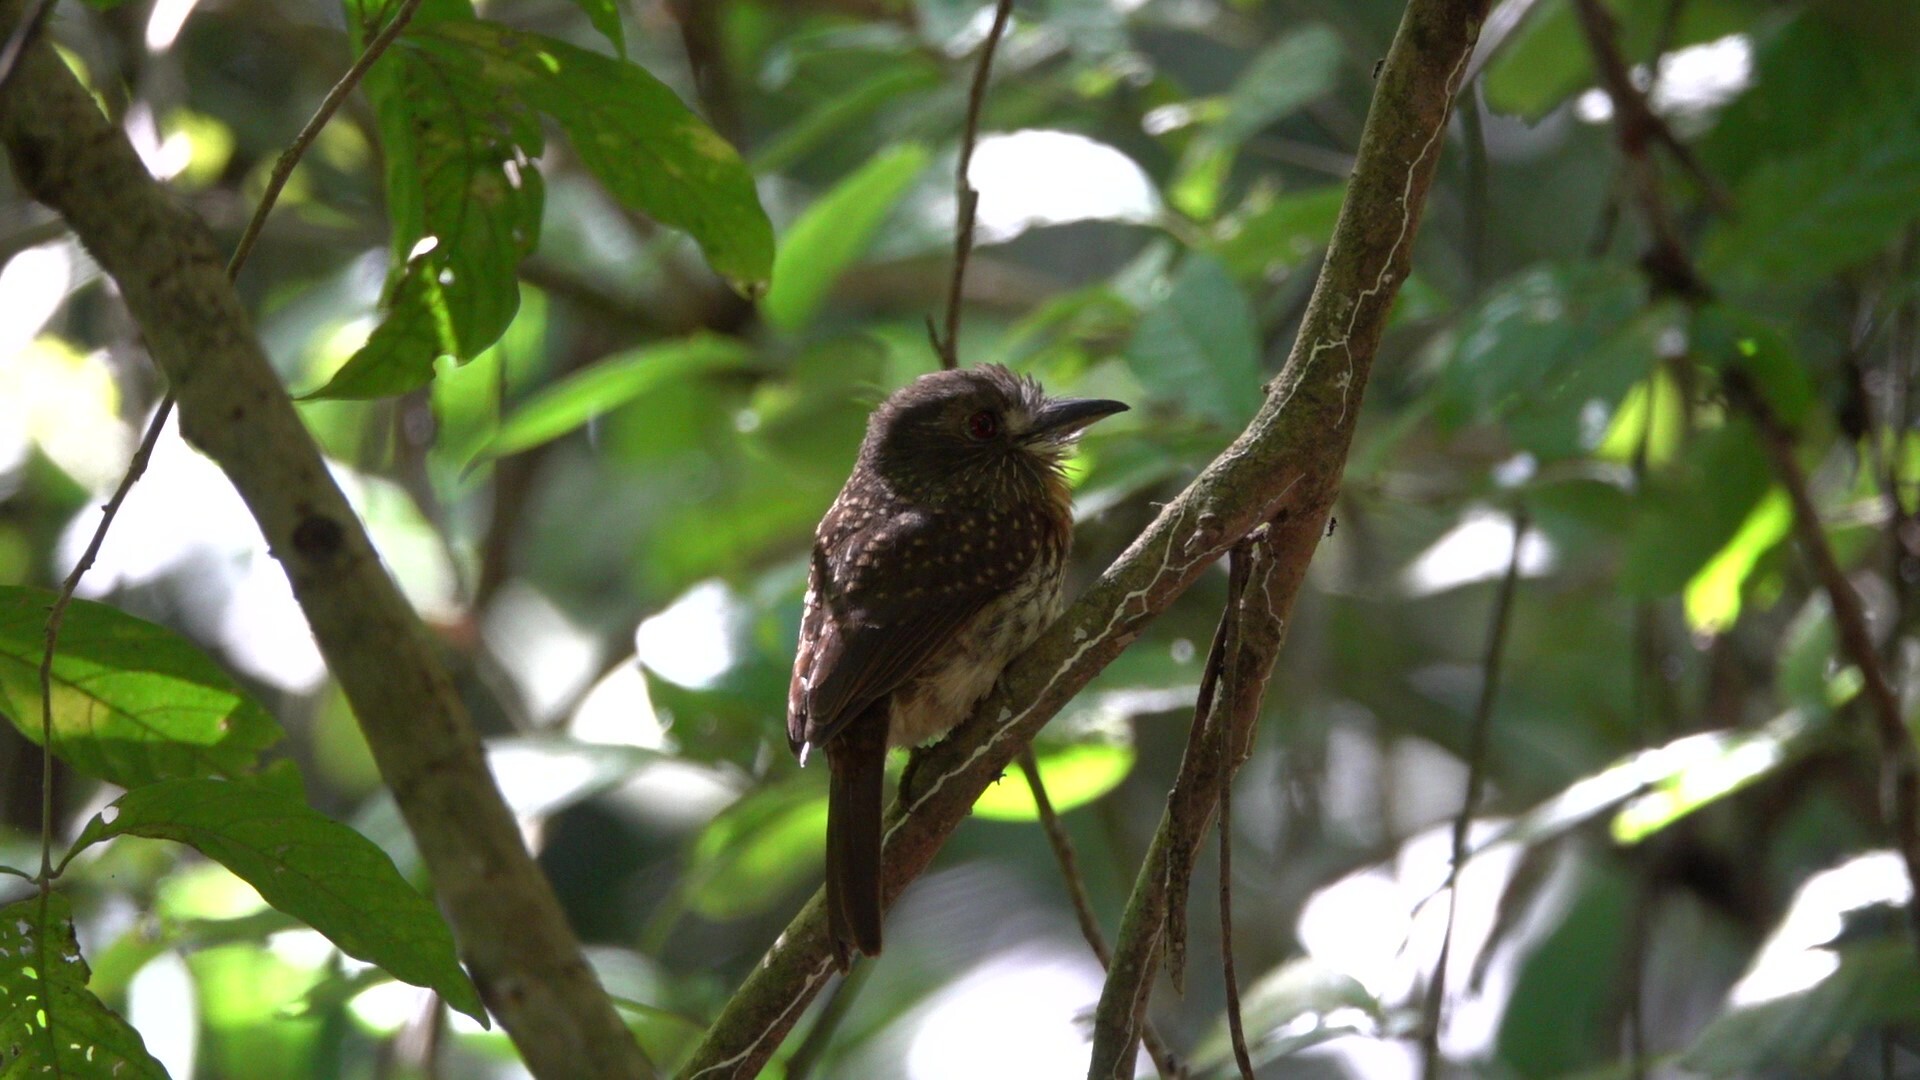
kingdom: Animalia
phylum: Chordata
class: Aves
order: Piciformes
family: Bucconidae
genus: Malacoptila
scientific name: Malacoptila panamensis
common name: White-whiskered puffbird
